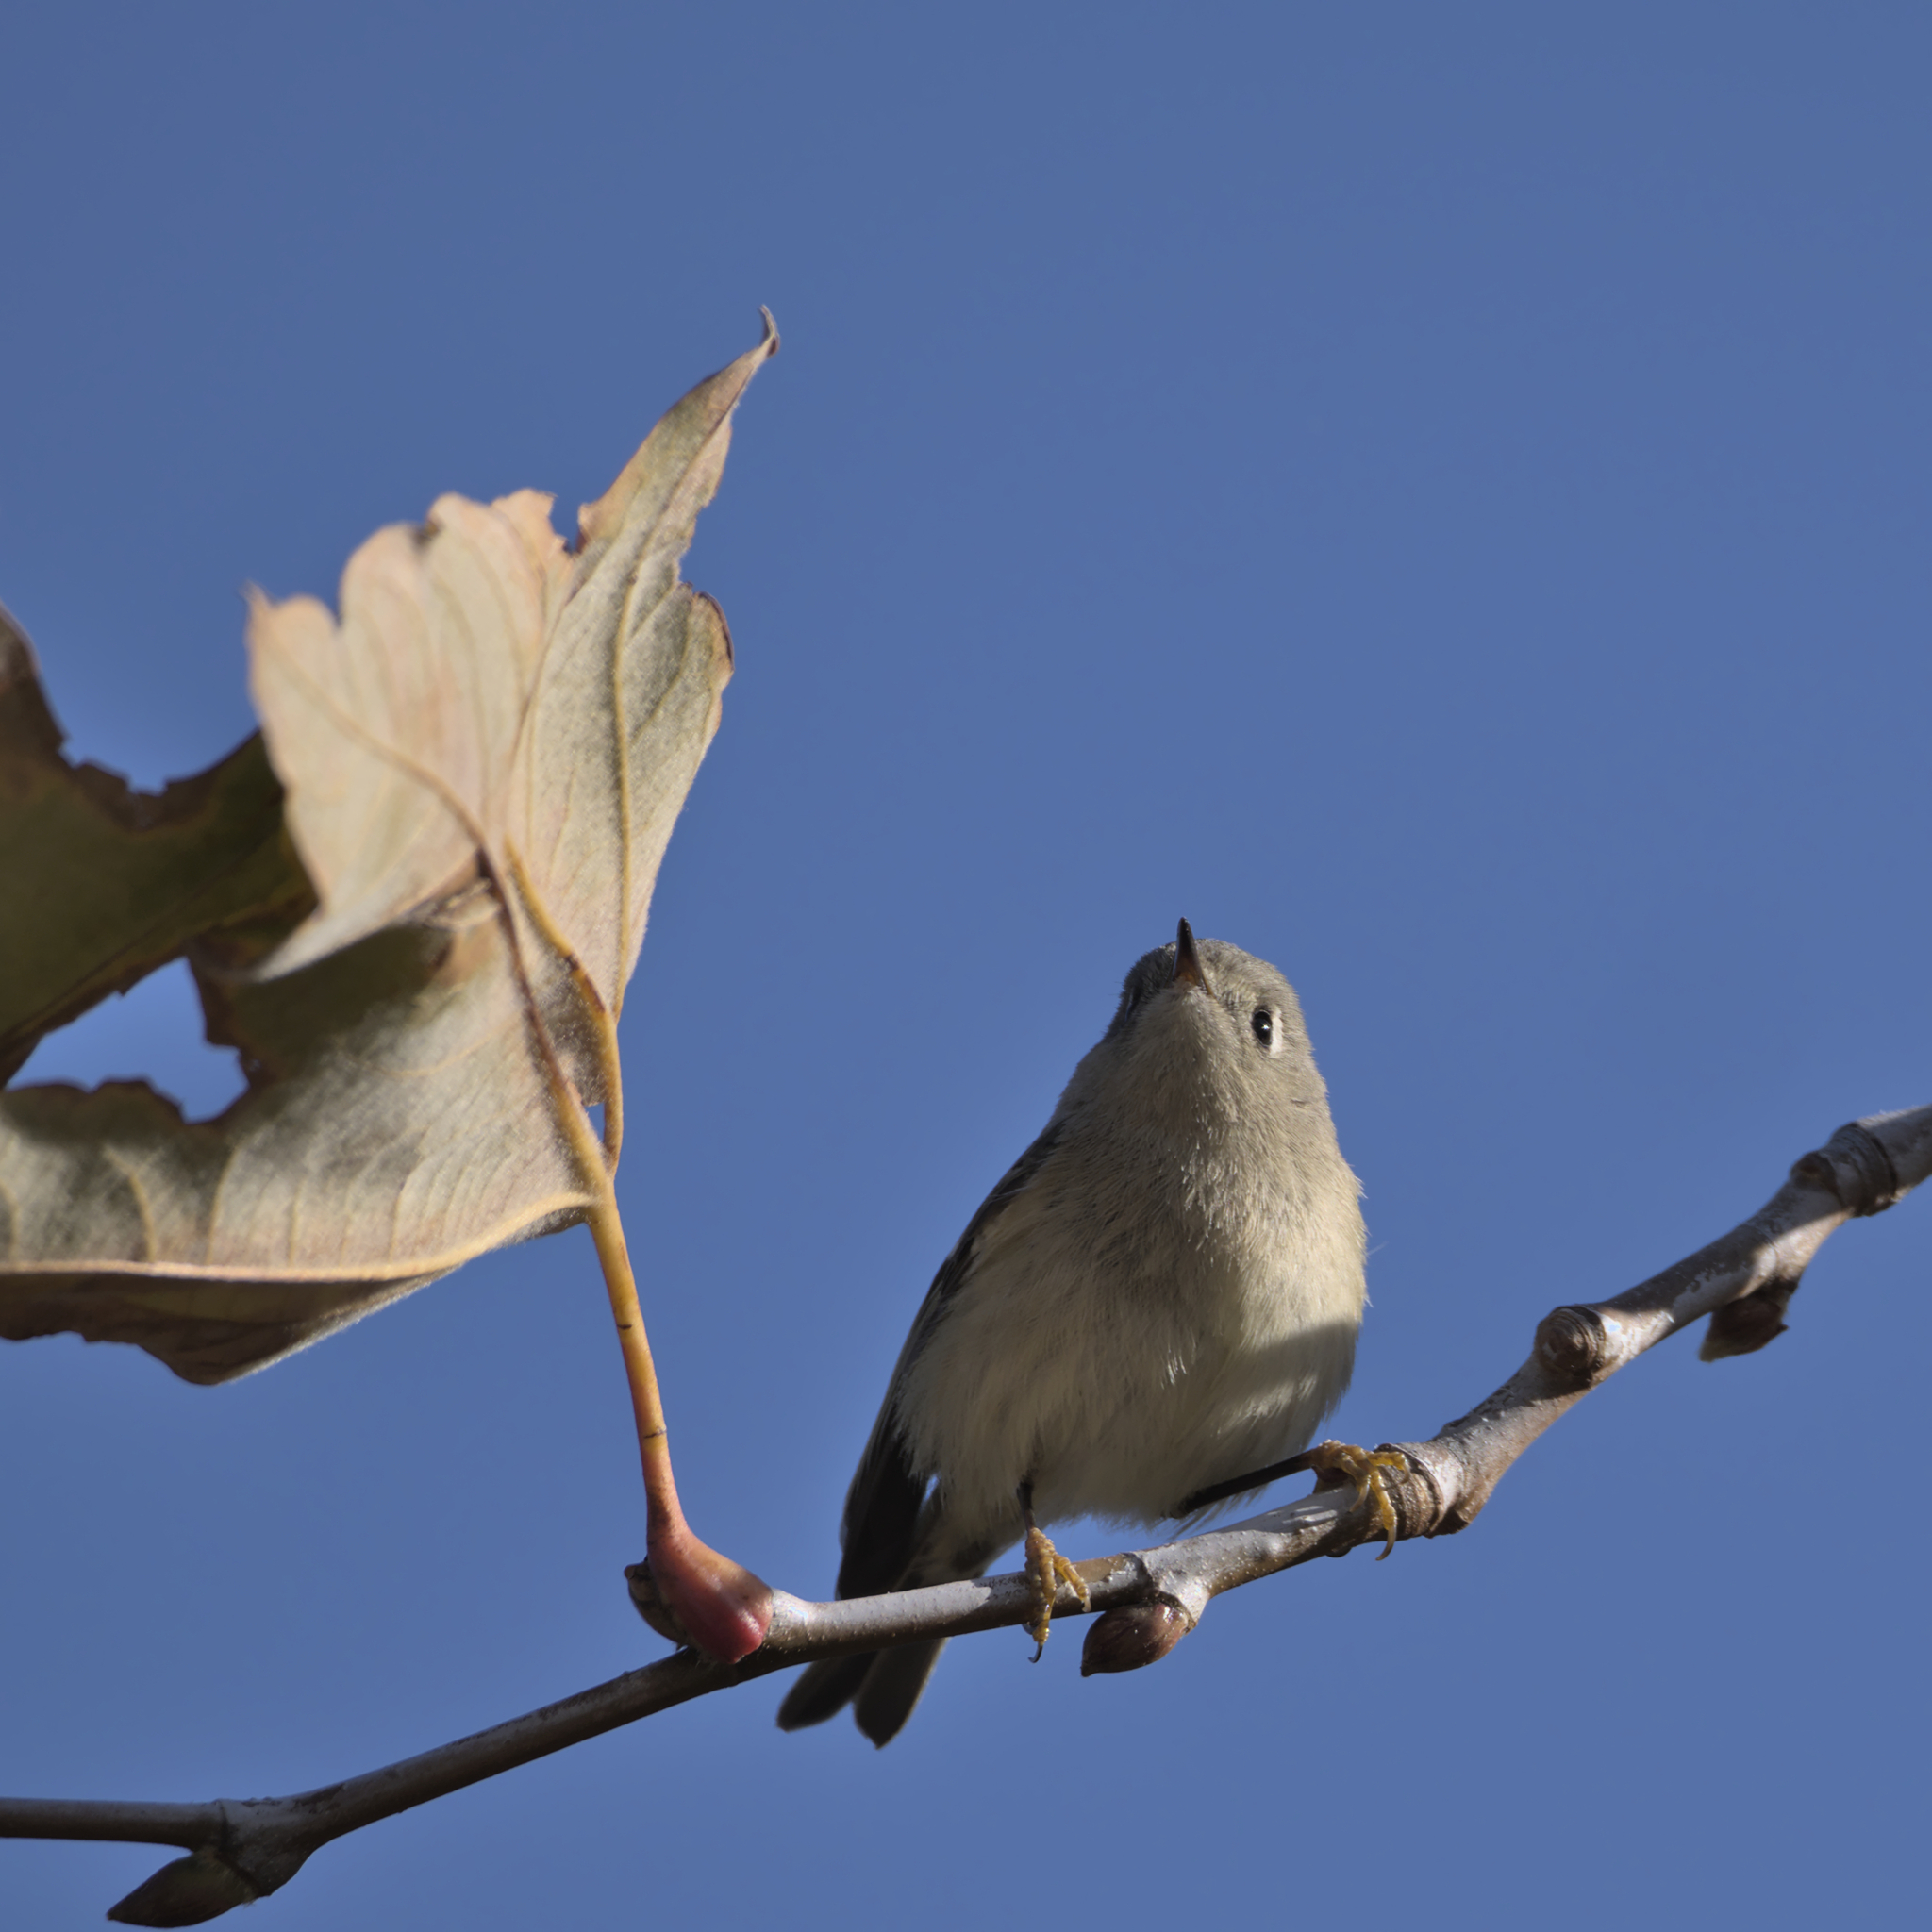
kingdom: Animalia
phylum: Chordata
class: Aves
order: Passeriformes
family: Regulidae
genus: Regulus
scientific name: Regulus calendula
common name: Ruby-crowned kinglet
